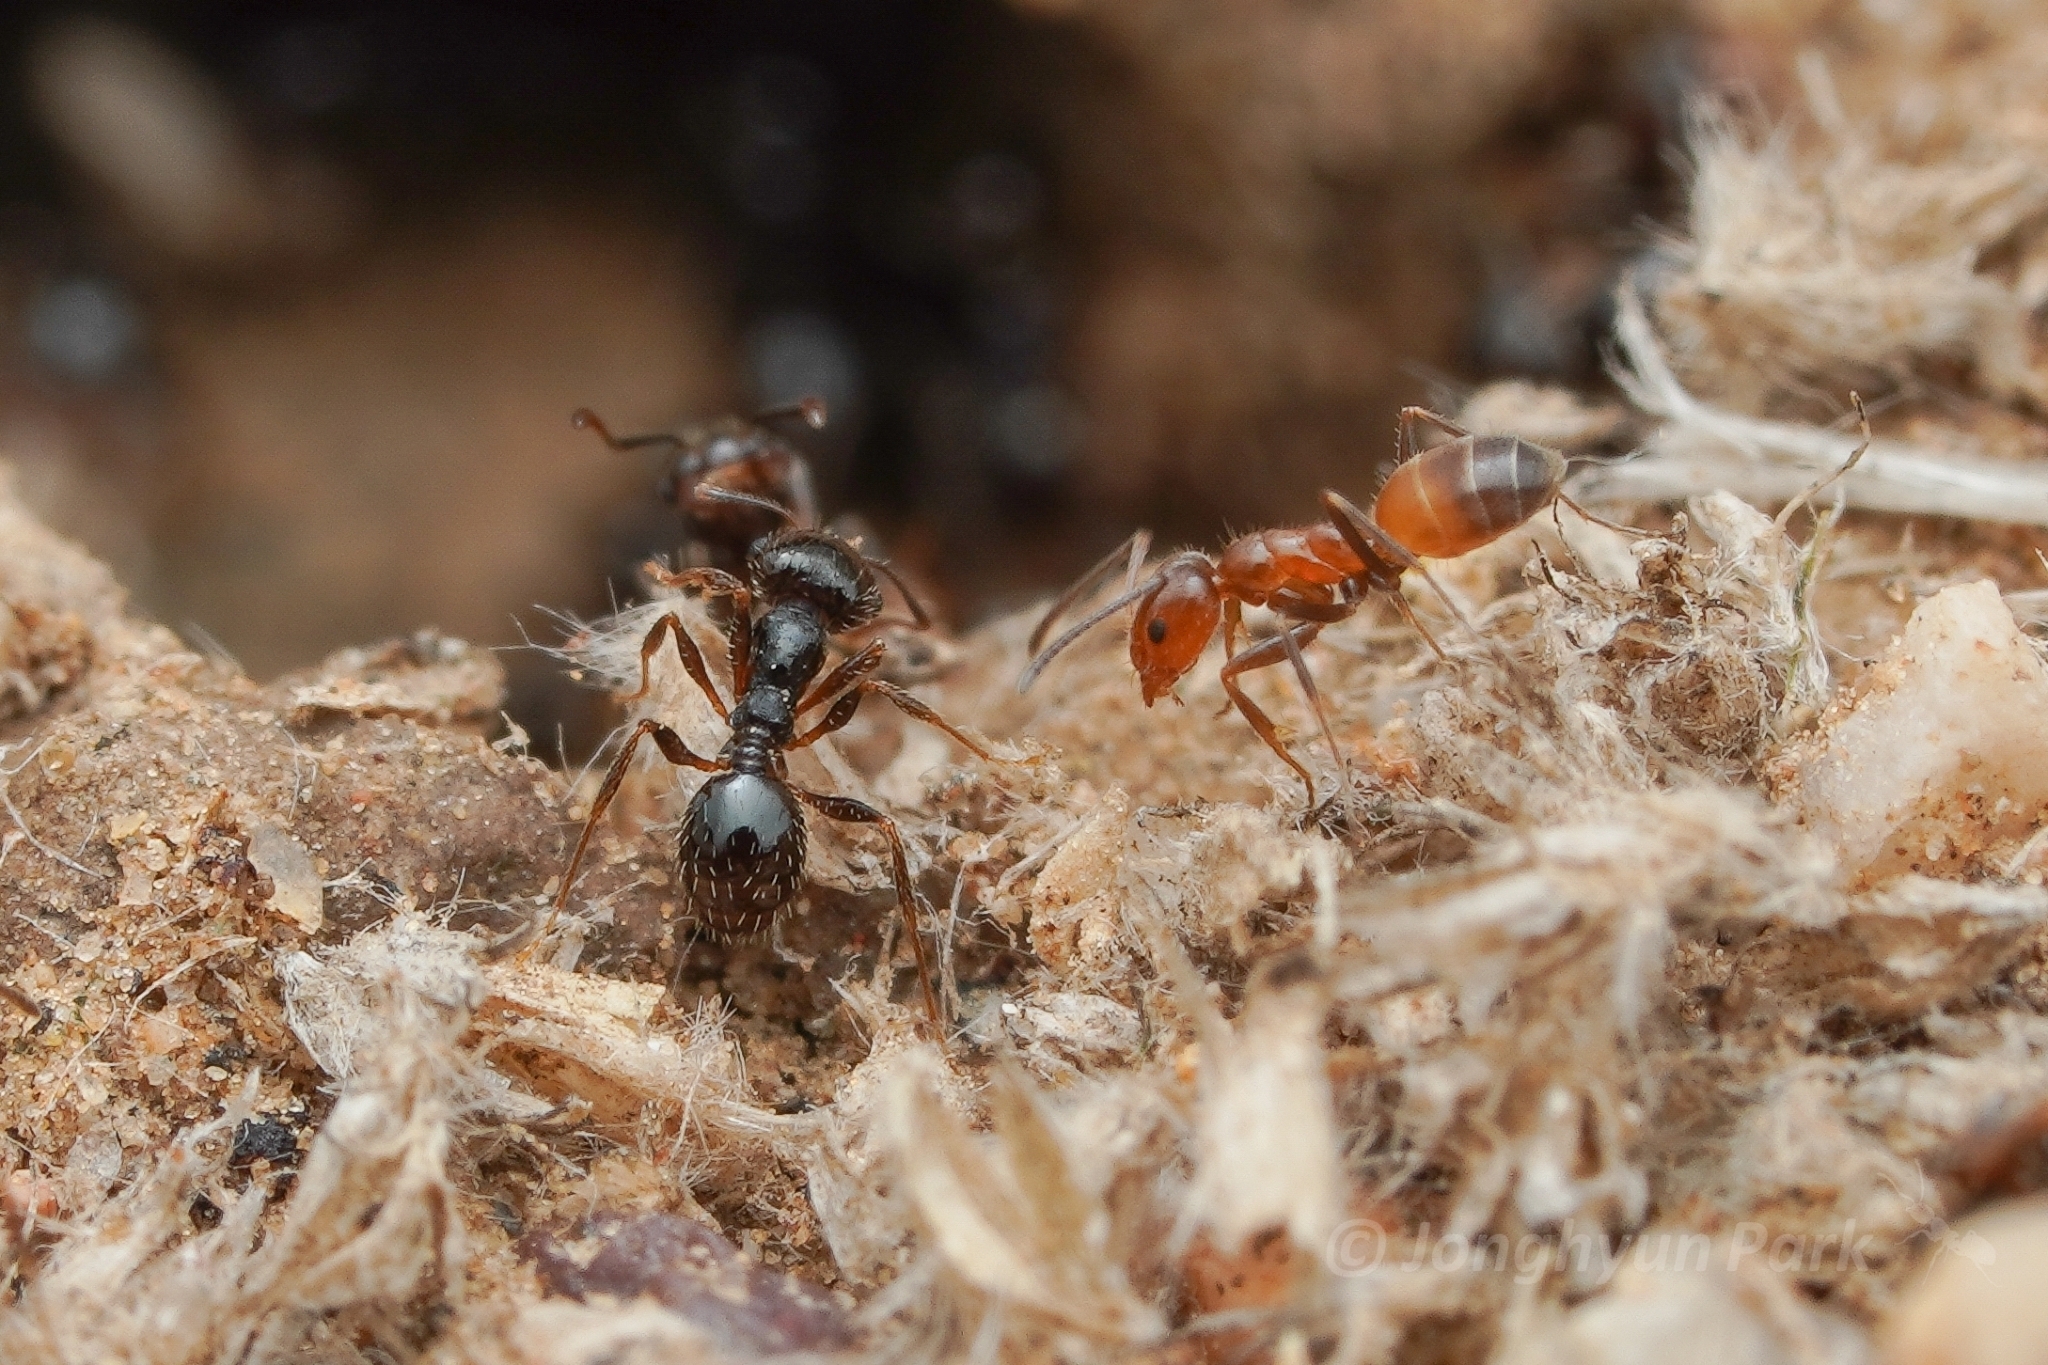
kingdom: Animalia
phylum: Arthropoda
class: Insecta
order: Hymenoptera
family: Formicidae
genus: Forelius
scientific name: Forelius mccooki
